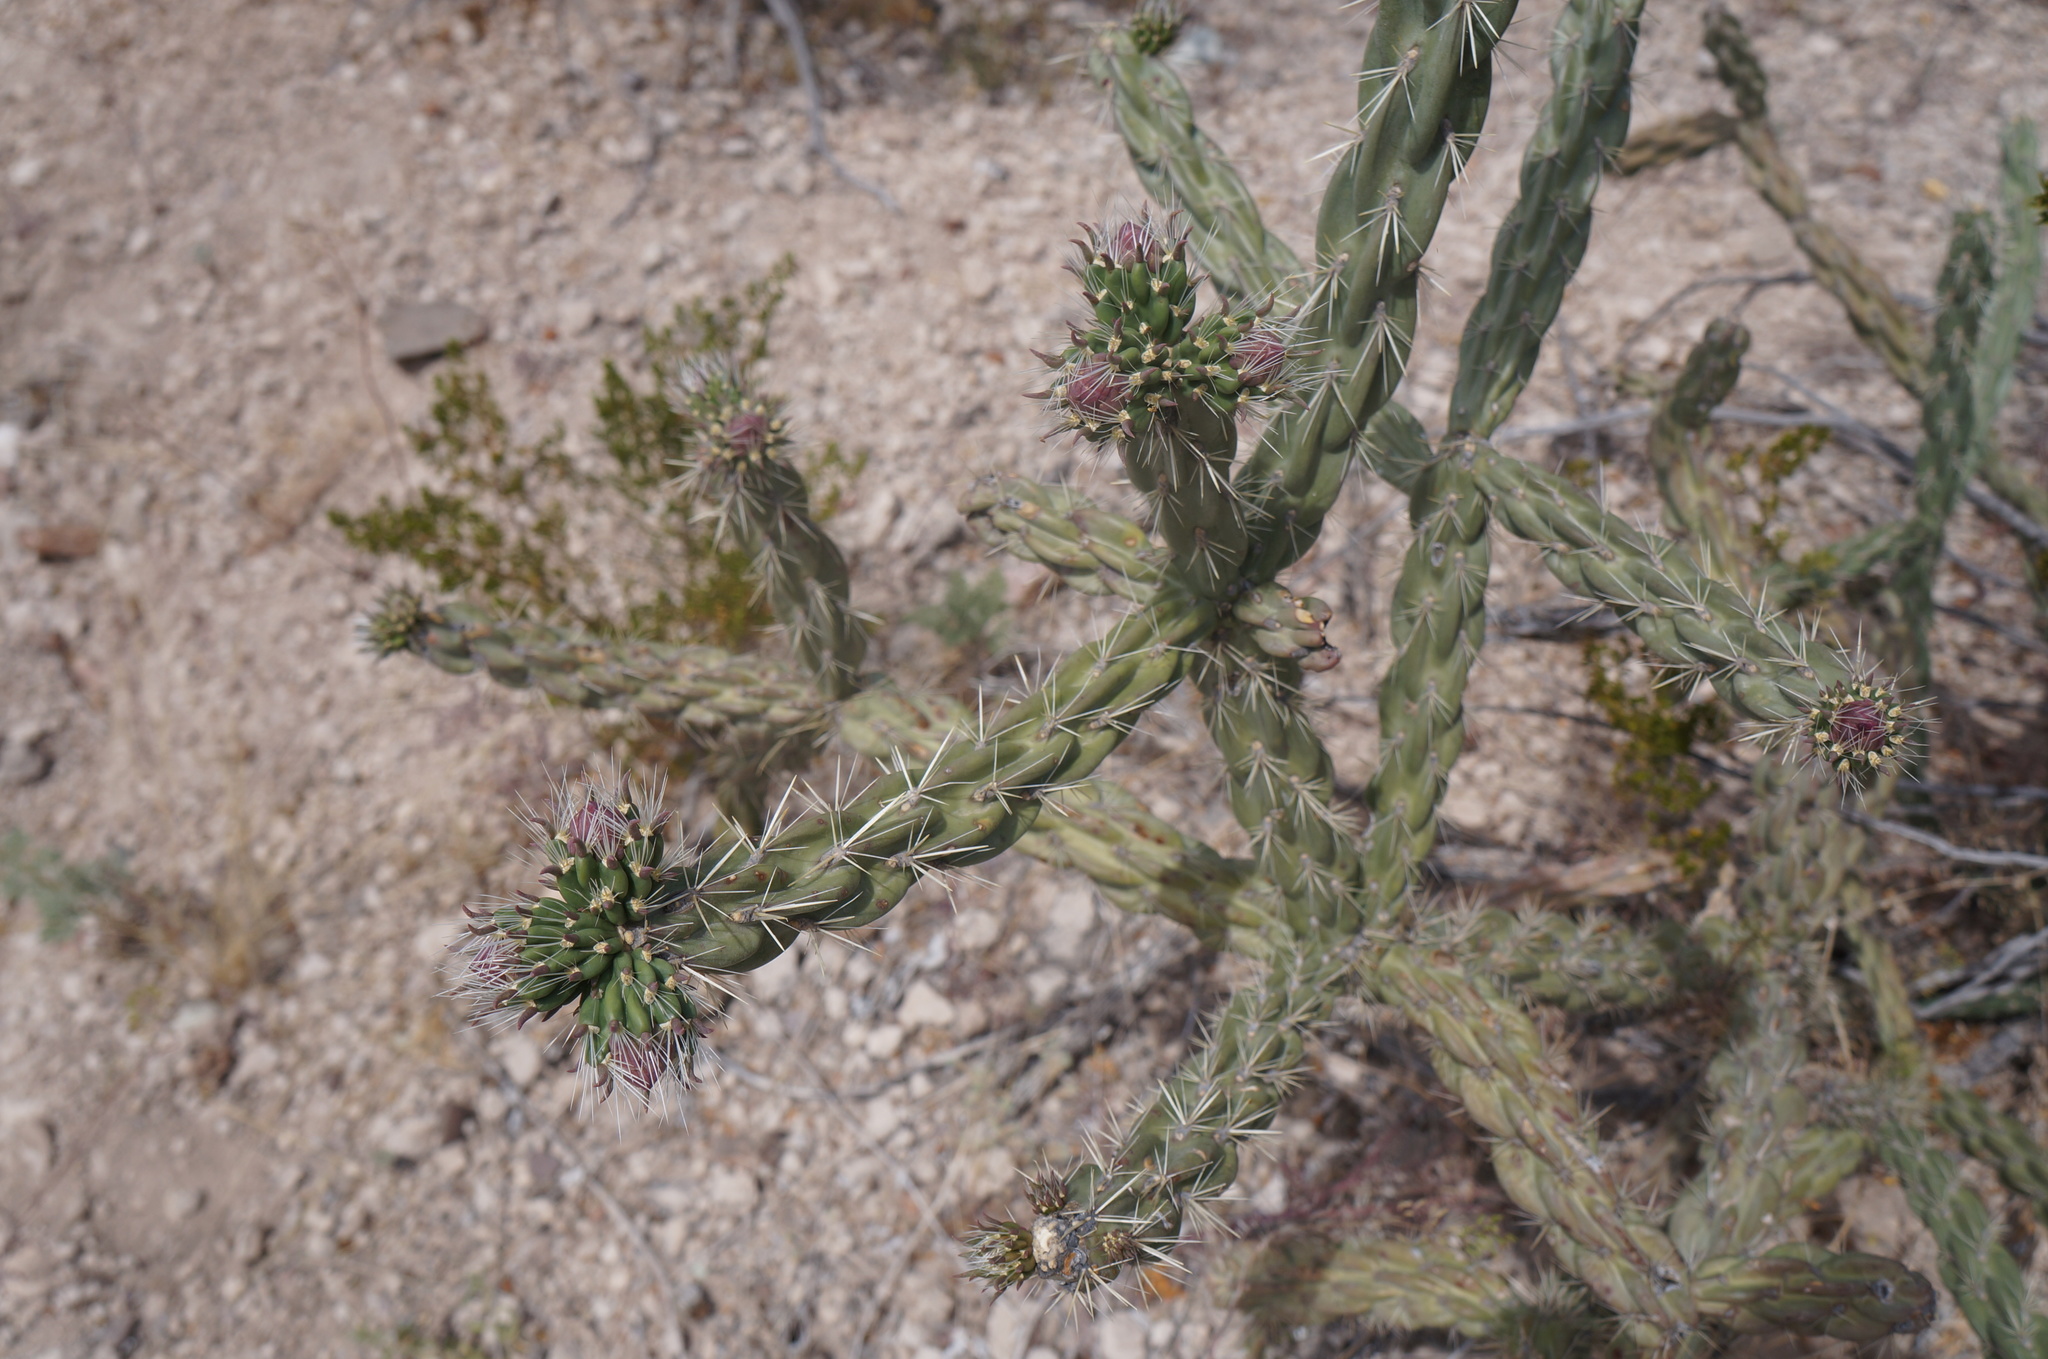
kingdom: Plantae
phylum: Tracheophyta
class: Magnoliopsida
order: Caryophyllales
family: Cactaceae
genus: Cylindropuntia
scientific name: Cylindropuntia imbricata
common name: Candelabrum cactus
